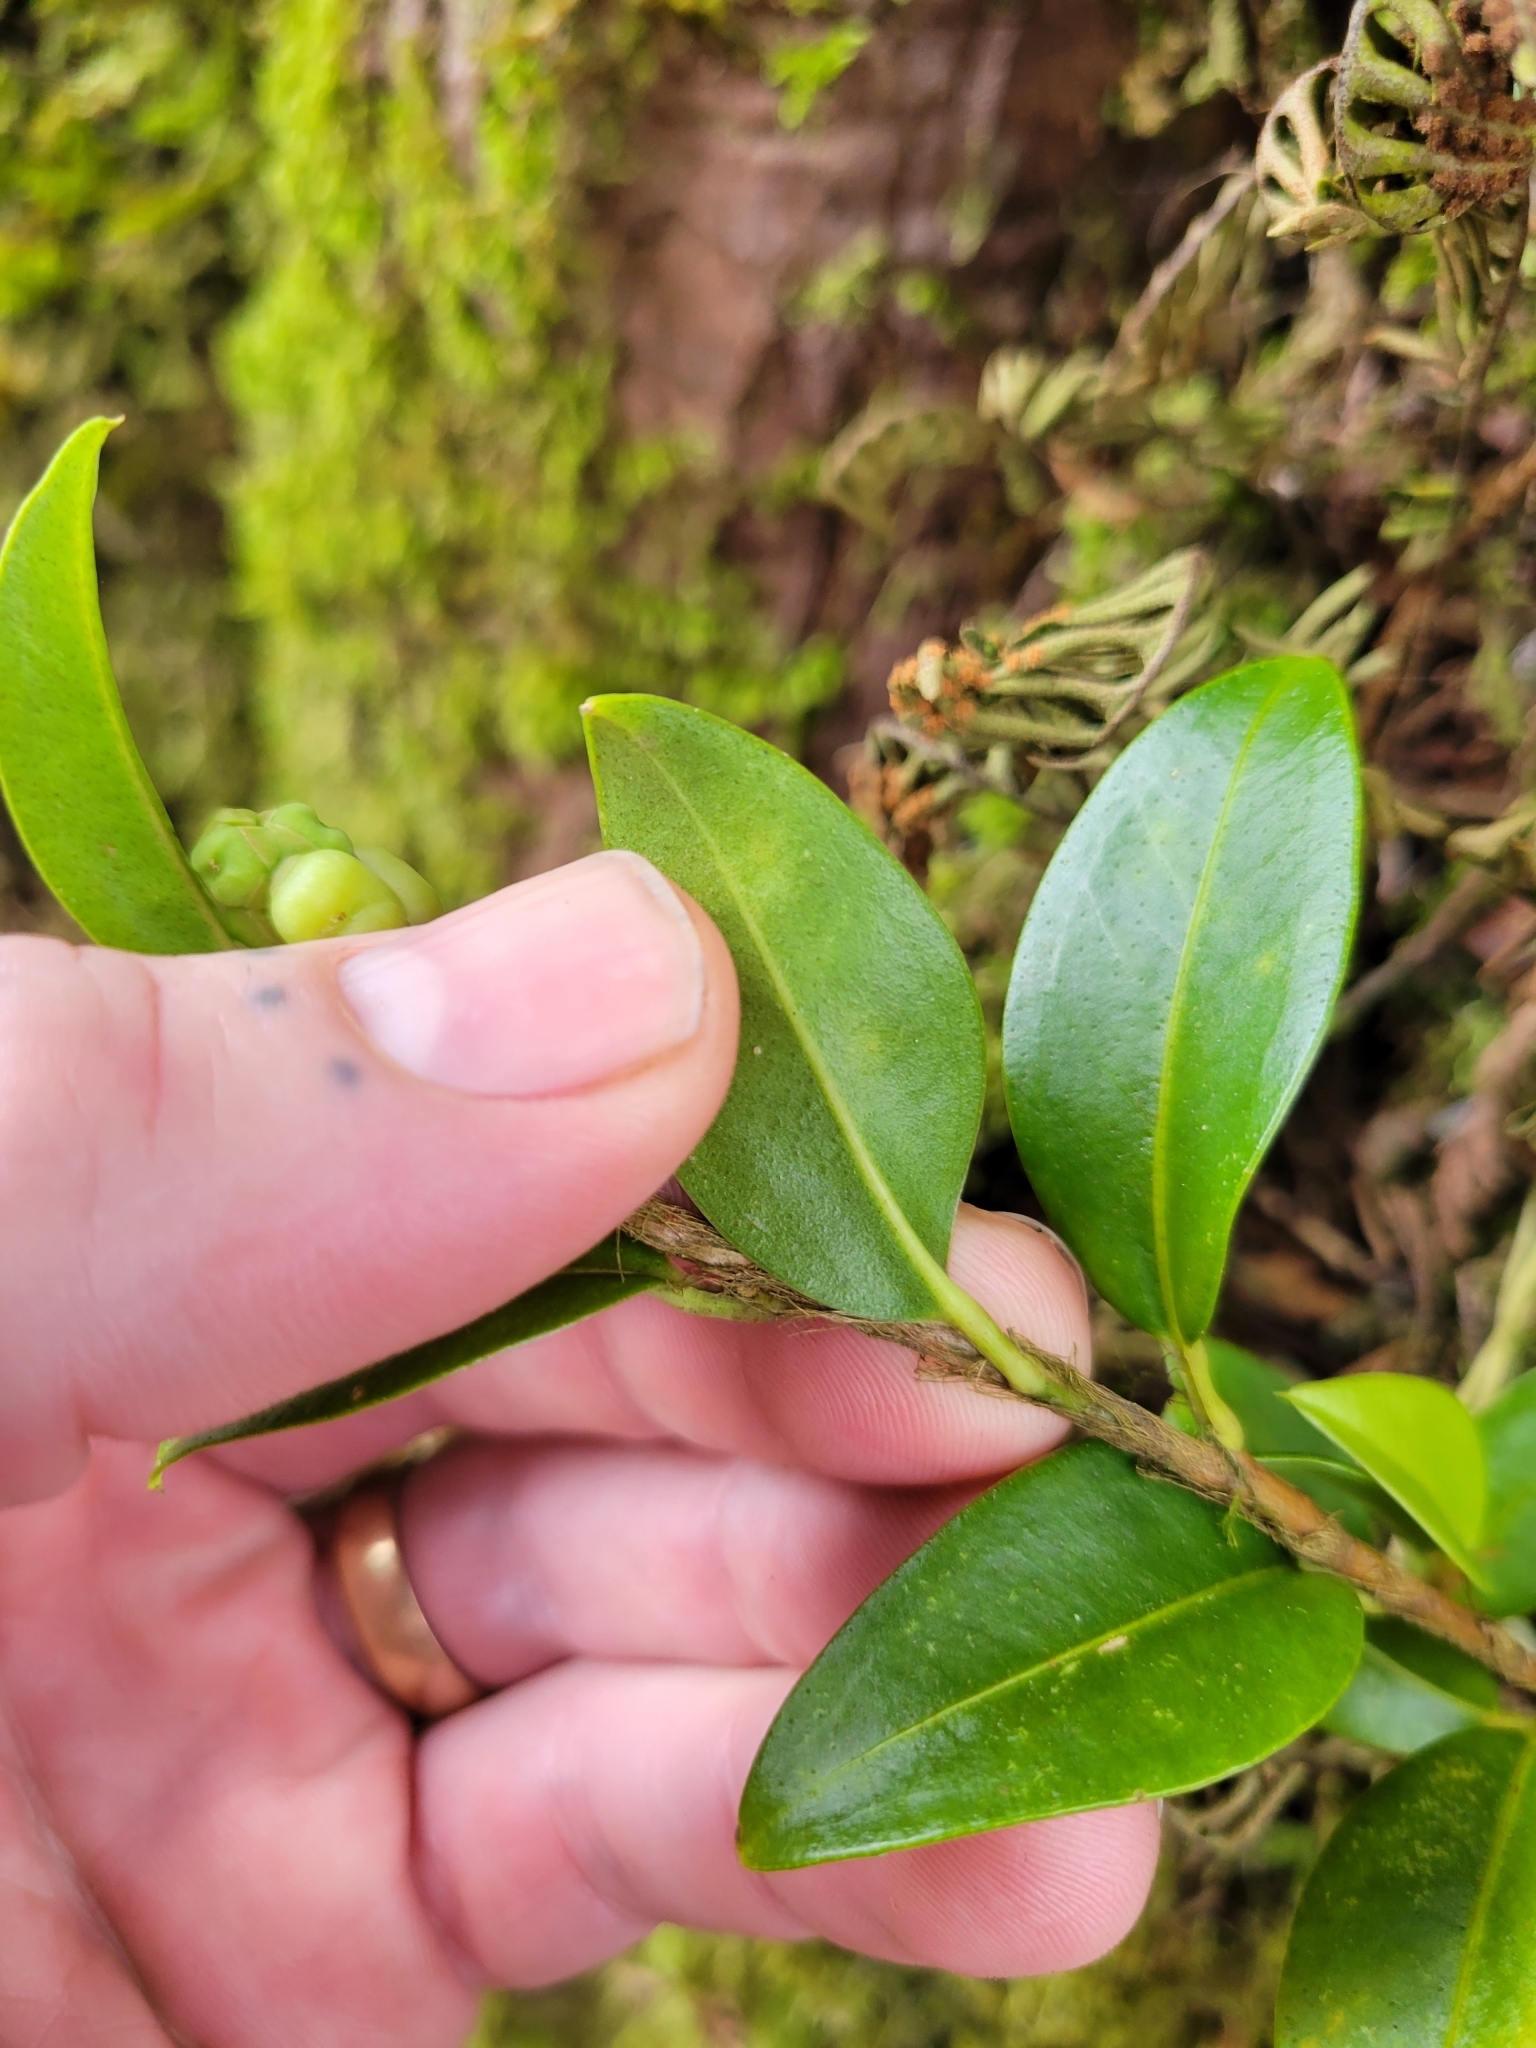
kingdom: Plantae
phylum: Tracheophyta
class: Liliopsida
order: Alismatales
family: Araceae
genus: Anthurium
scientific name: Anthurium scandens
